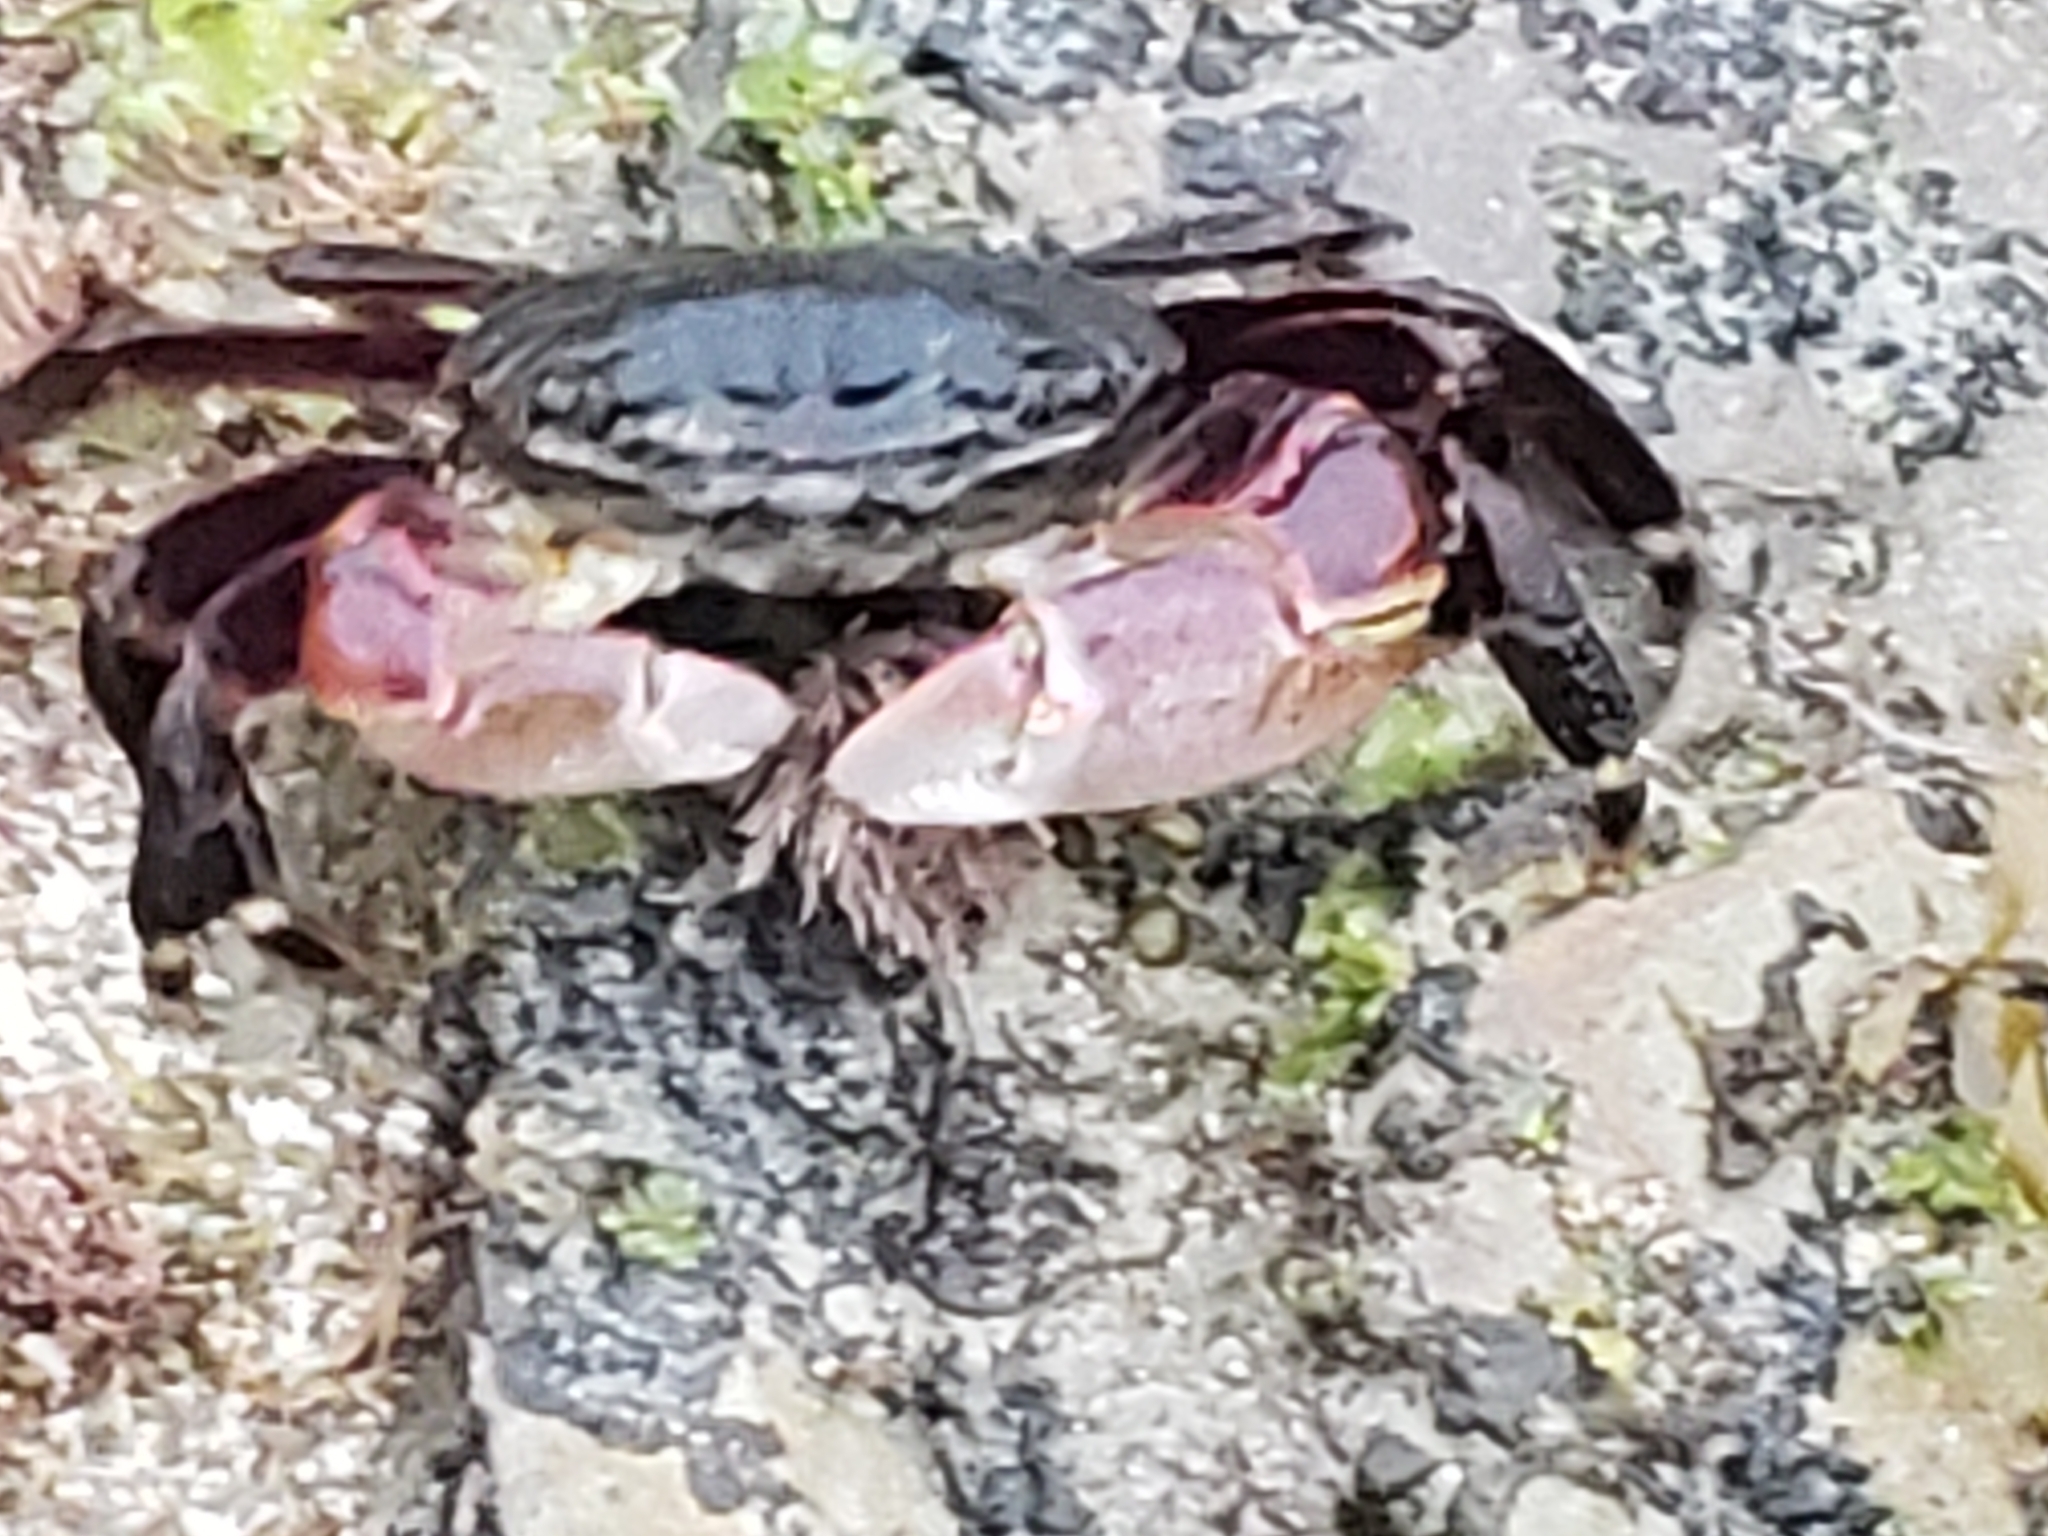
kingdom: Animalia
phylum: Arthropoda
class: Malacostraca
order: Decapoda
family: Grapsidae
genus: Pachygrapsus
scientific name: Pachygrapsus crassipes
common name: Striped shore crab
